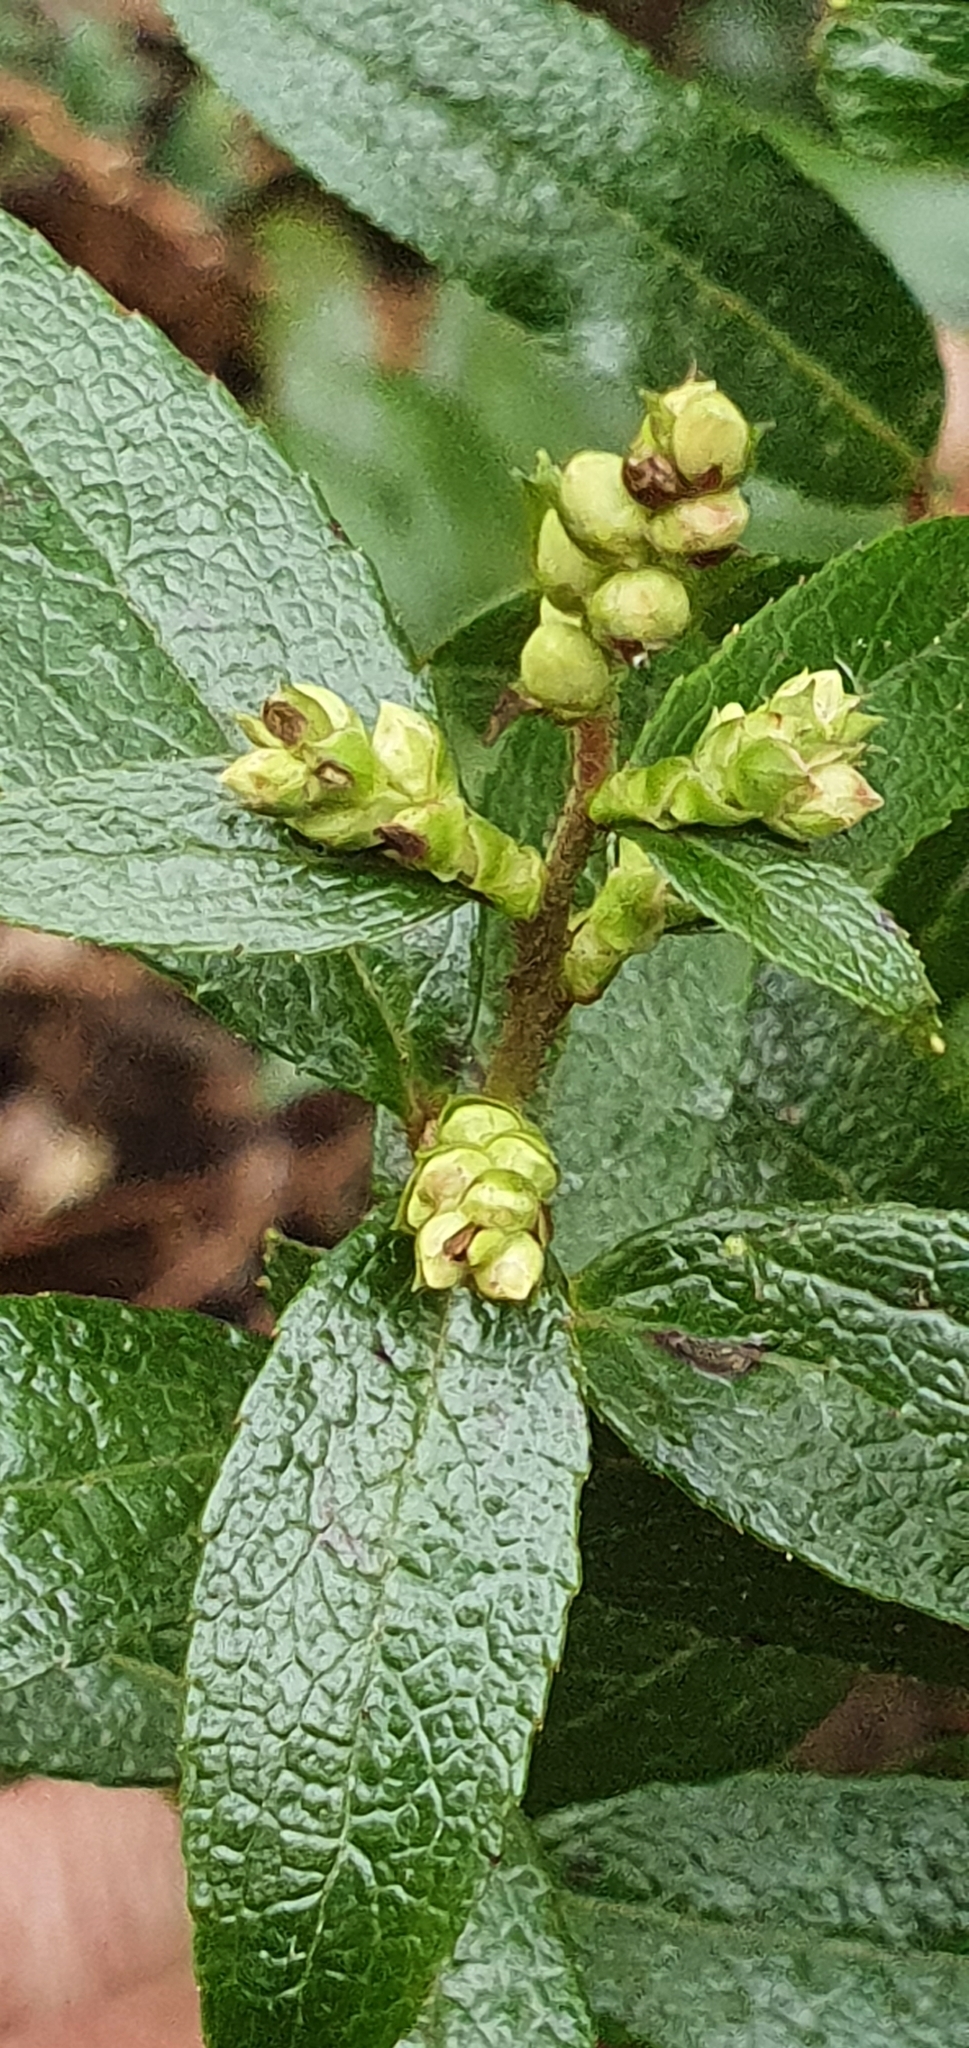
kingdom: Plantae
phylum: Tracheophyta
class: Magnoliopsida
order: Ericales
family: Ericaceae
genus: Gaultheria
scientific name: Gaultheria hispida
